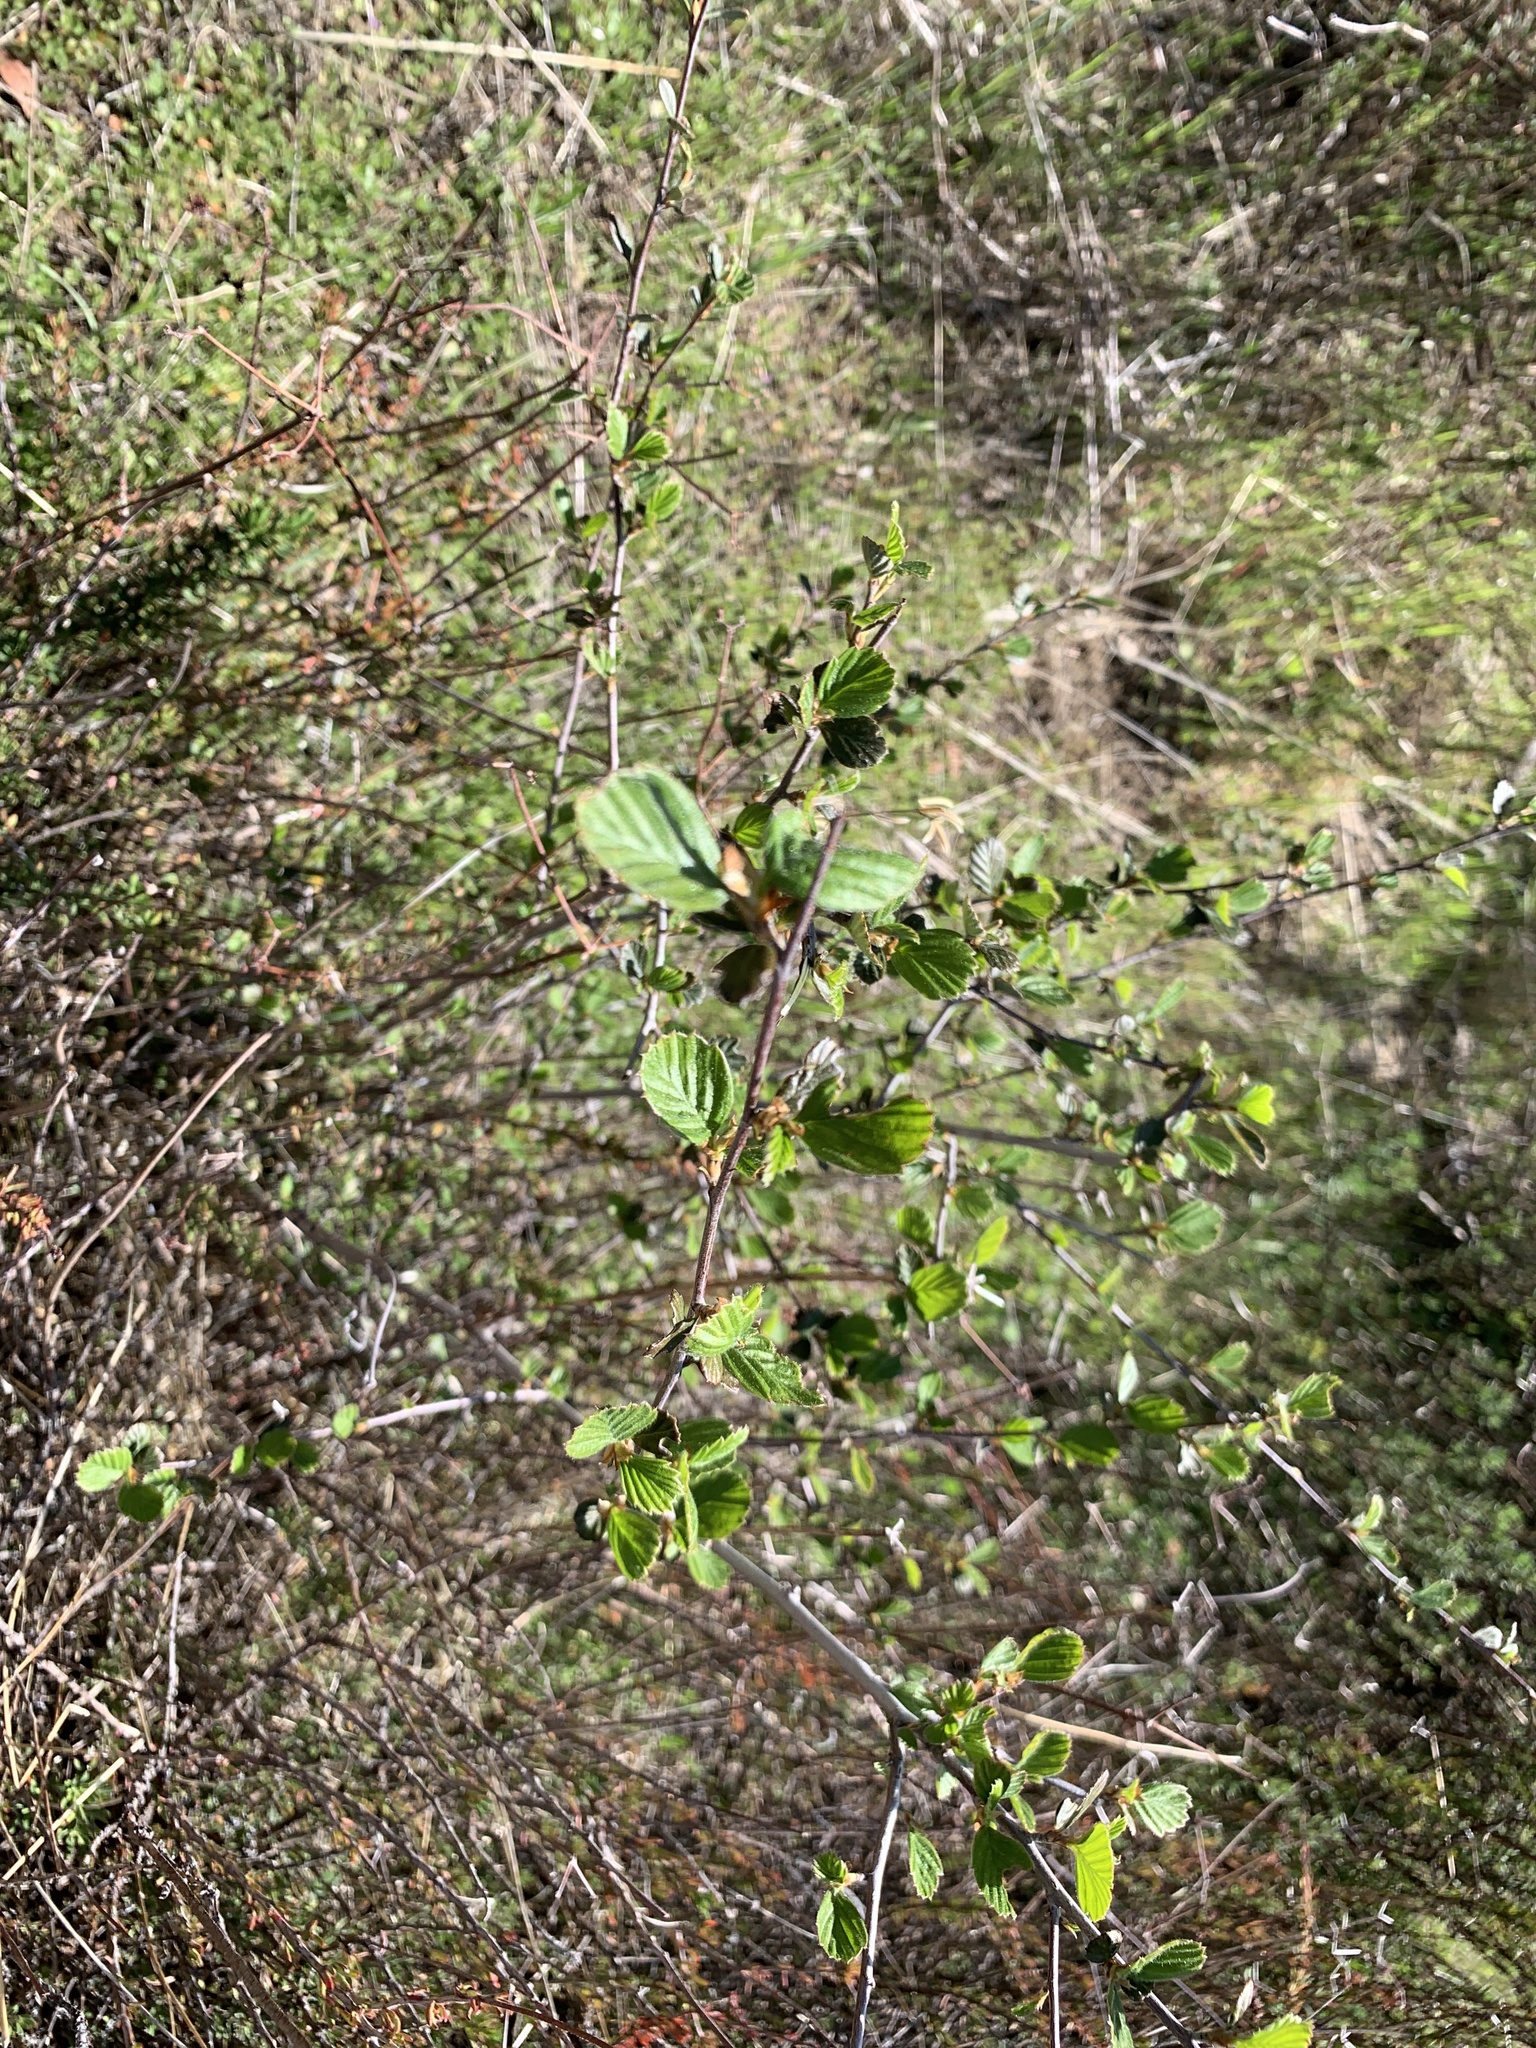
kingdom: Plantae
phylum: Tracheophyta
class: Magnoliopsida
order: Rosales
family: Rosaceae
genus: Cercocarpus
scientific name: Cercocarpus betuloides
